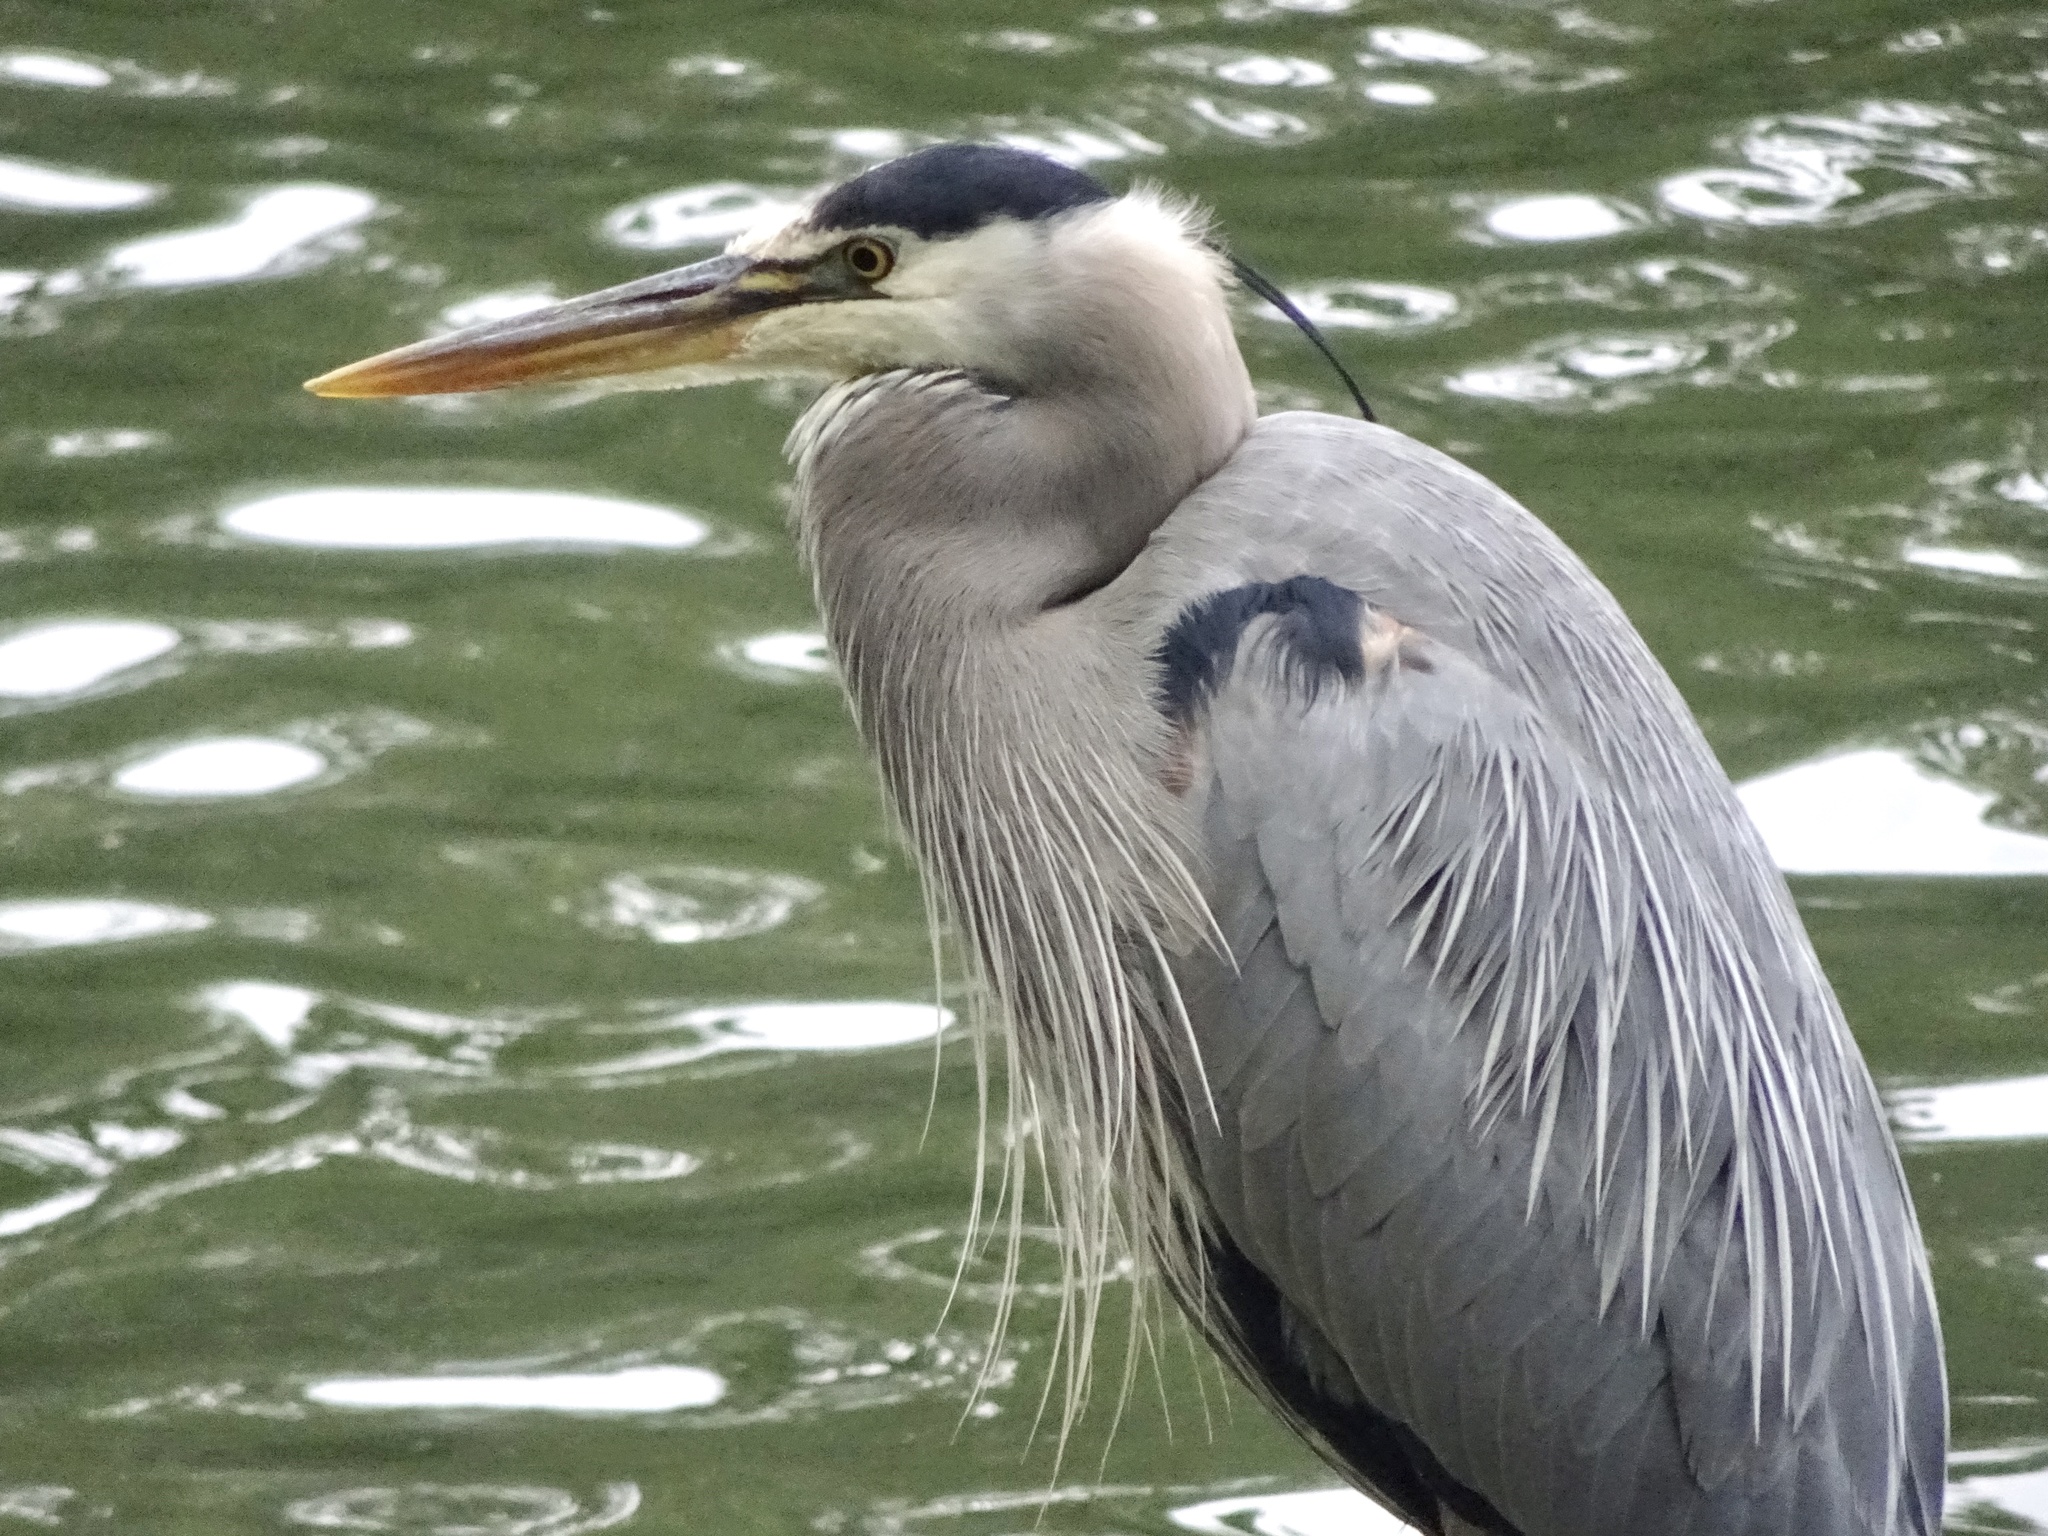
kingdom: Animalia
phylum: Chordata
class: Aves
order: Pelecaniformes
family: Ardeidae
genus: Ardea
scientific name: Ardea herodias
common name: Great blue heron
